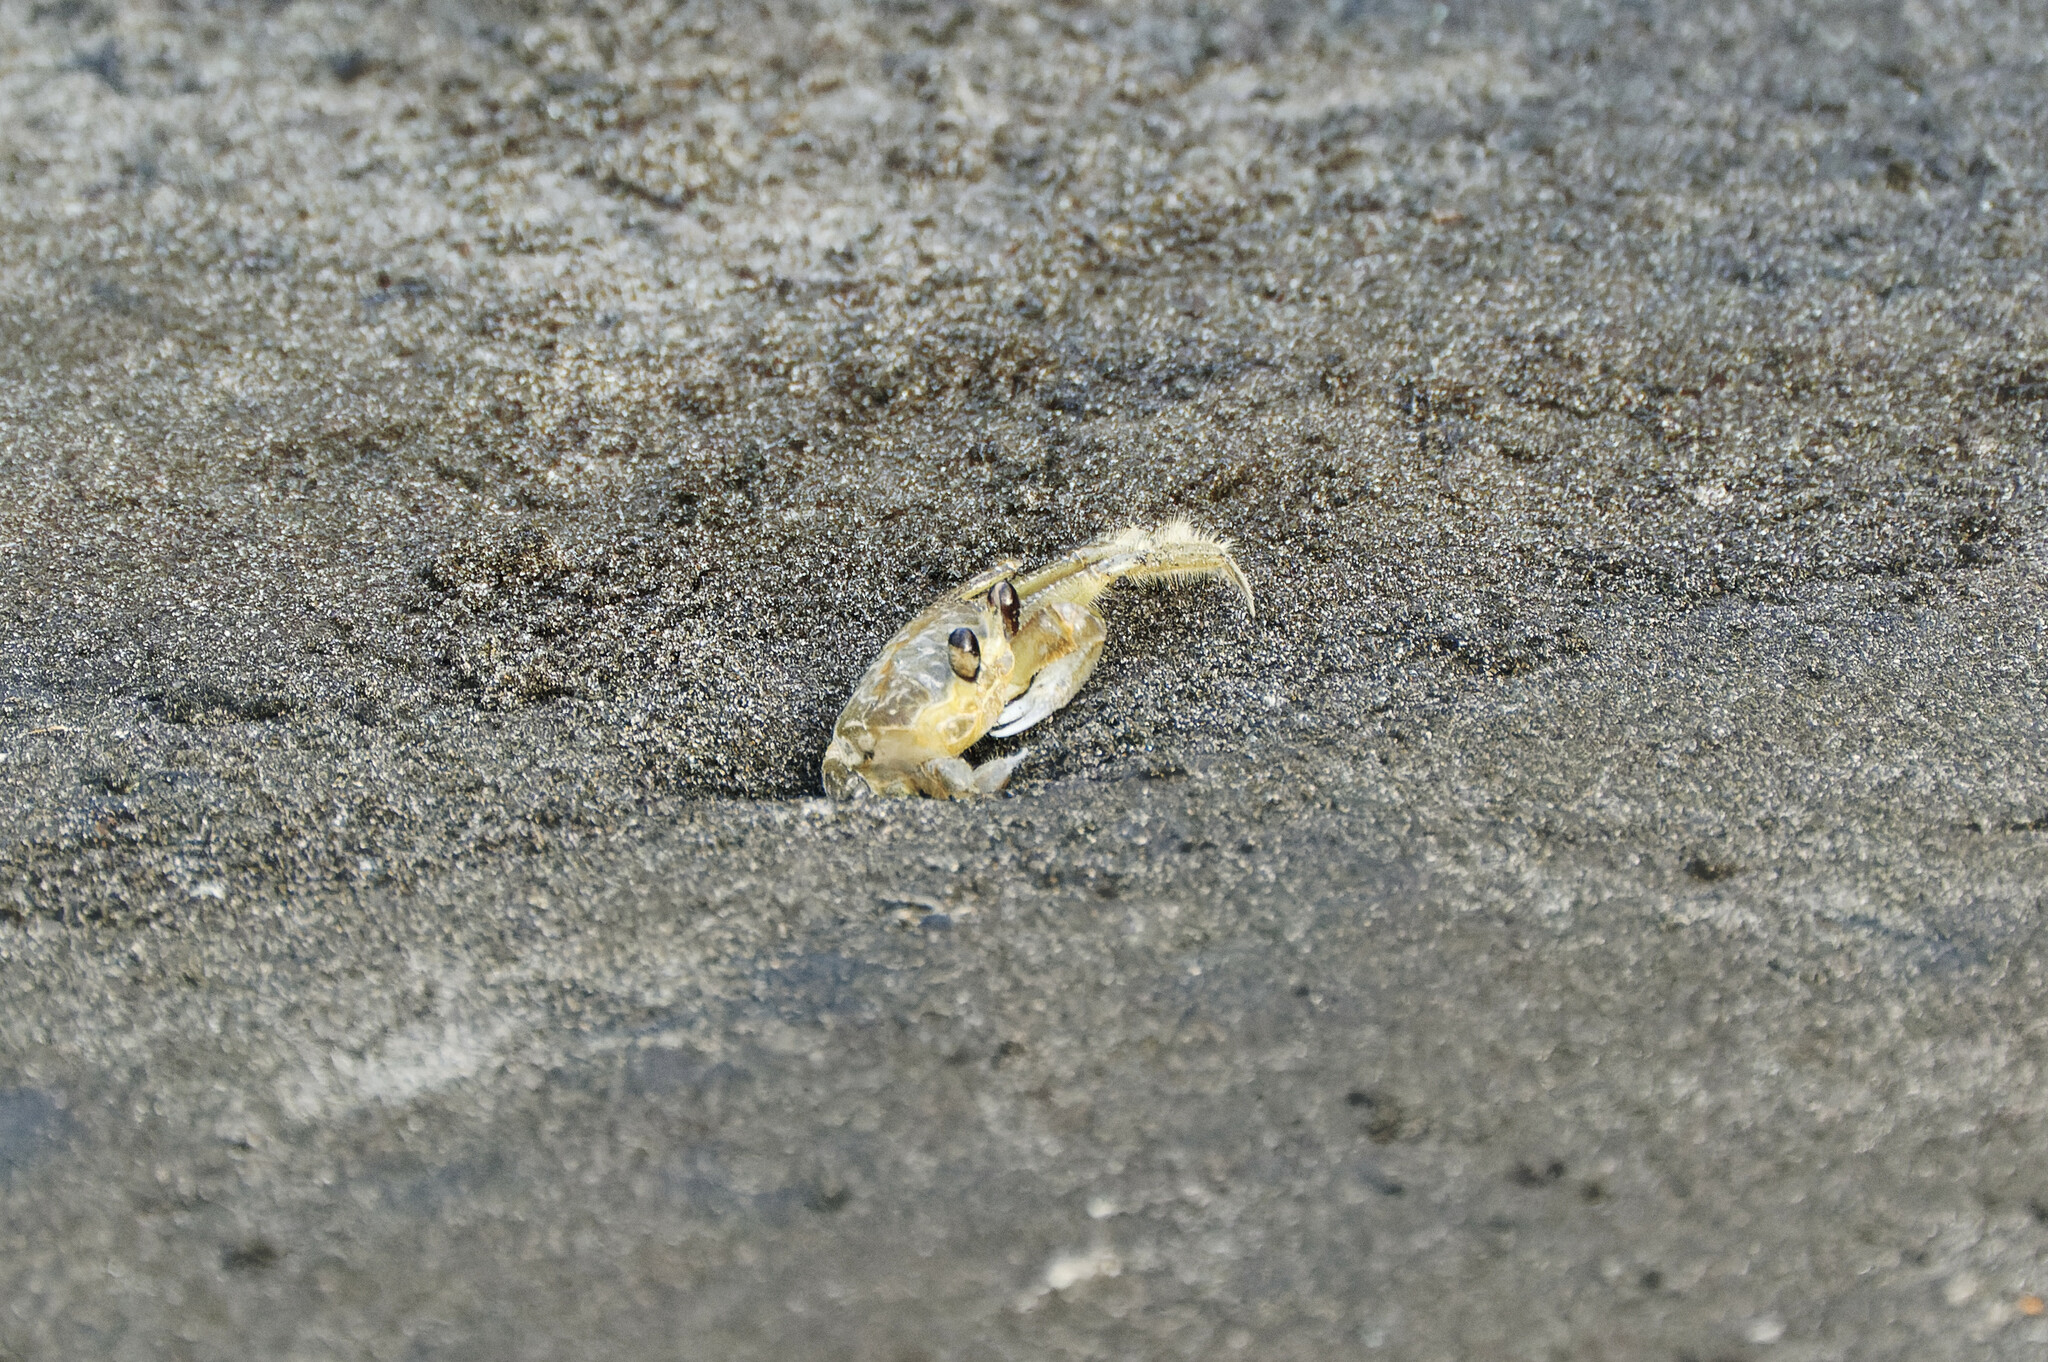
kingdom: Animalia
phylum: Arthropoda
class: Malacostraca
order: Decapoda
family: Ocypodidae
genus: Ocypode
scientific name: Ocypode quadrata
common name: Ghost crab
